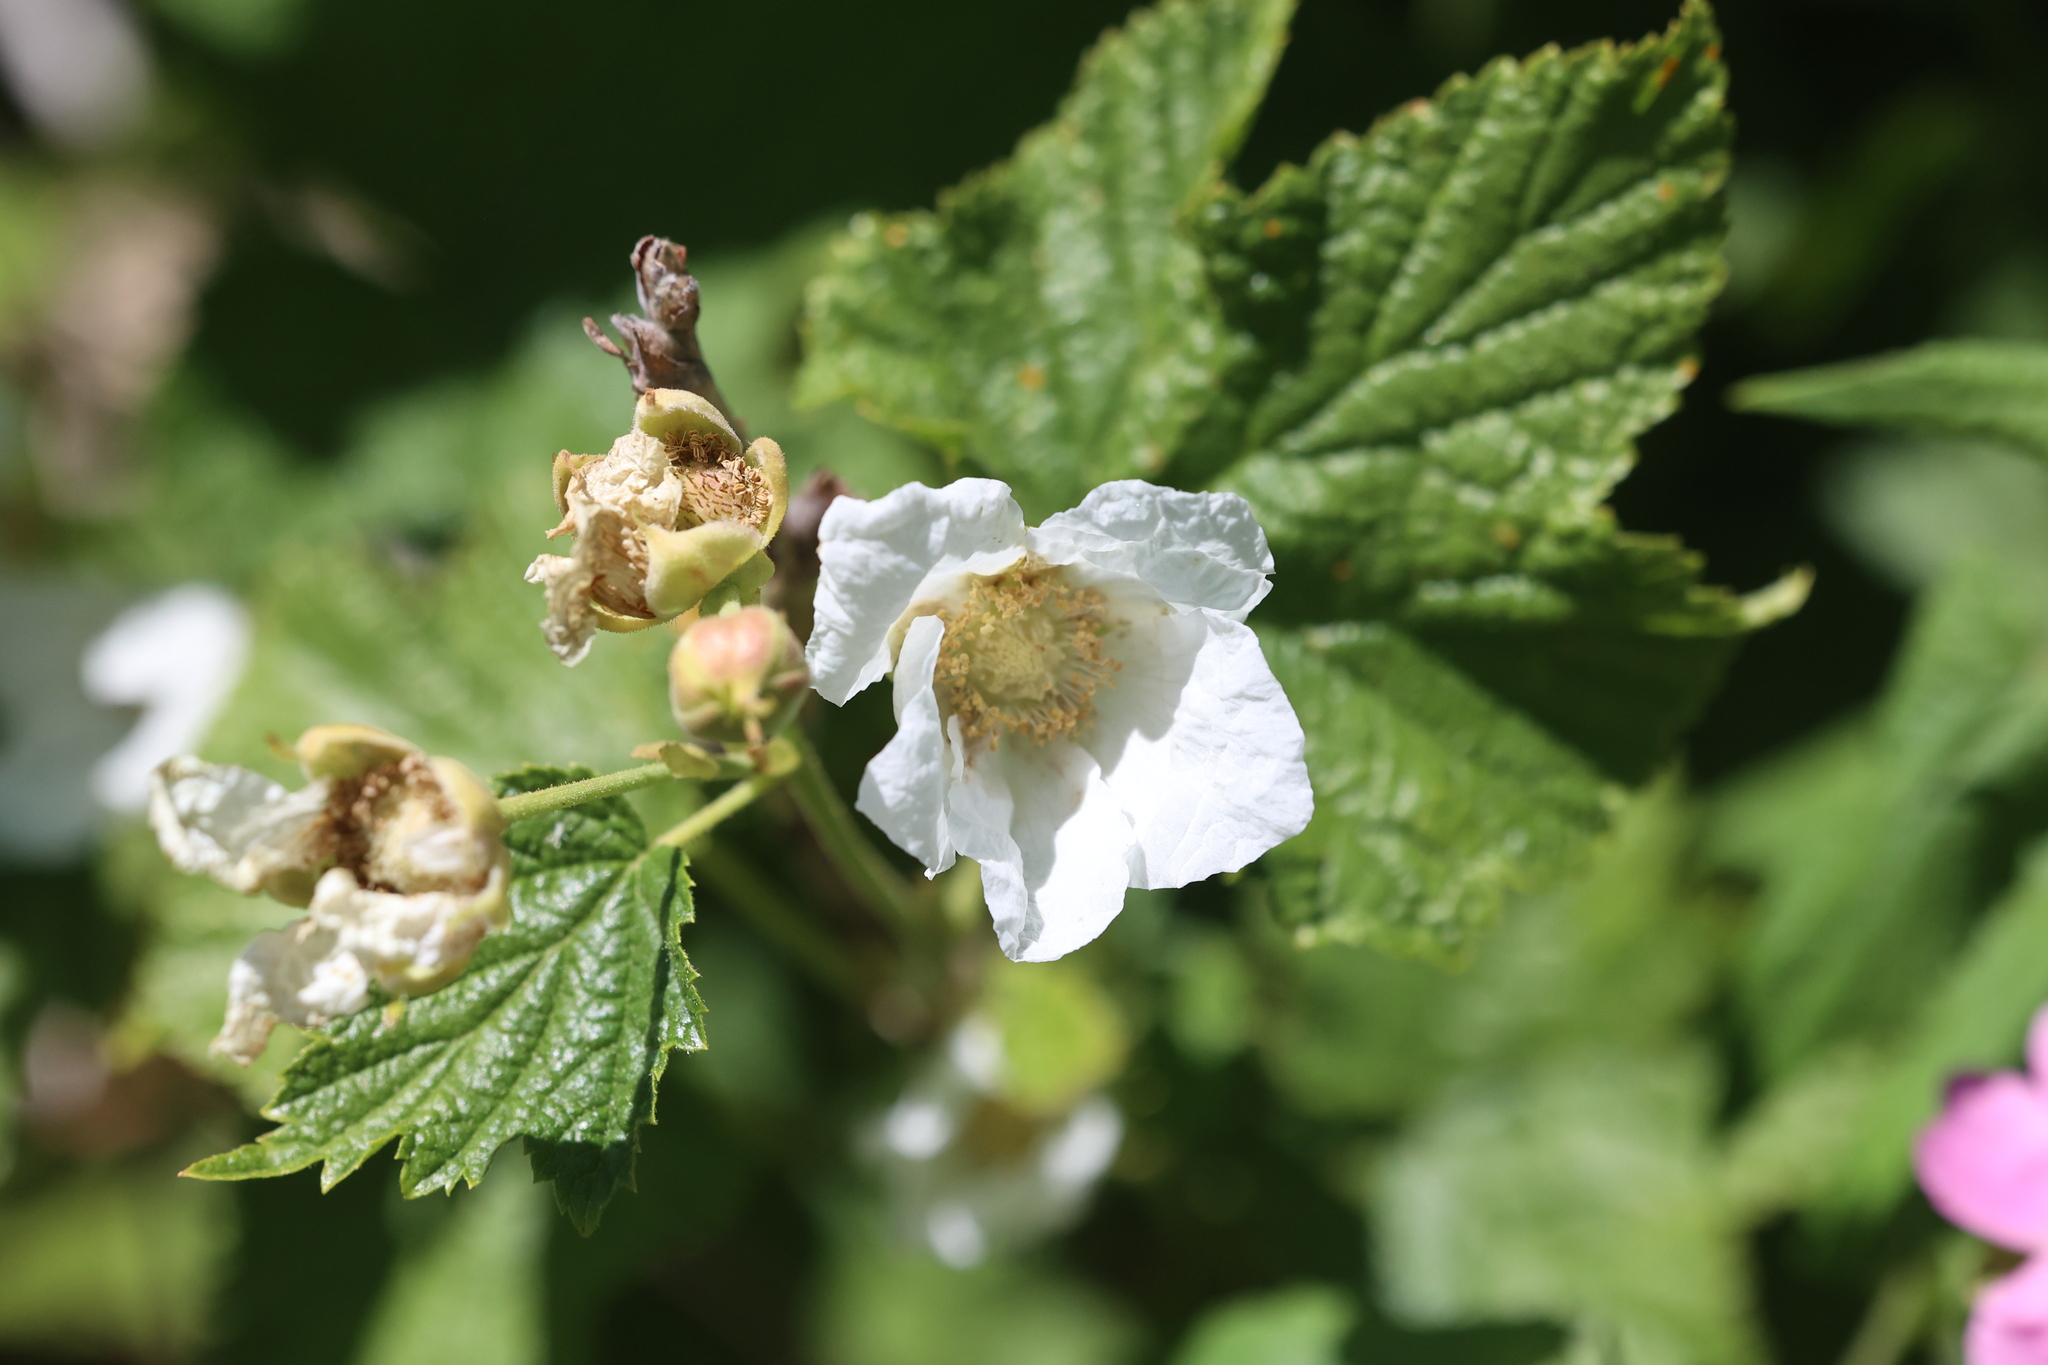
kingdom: Plantae
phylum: Tracheophyta
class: Magnoliopsida
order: Rosales
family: Rosaceae
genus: Rubus
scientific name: Rubus parviflorus
